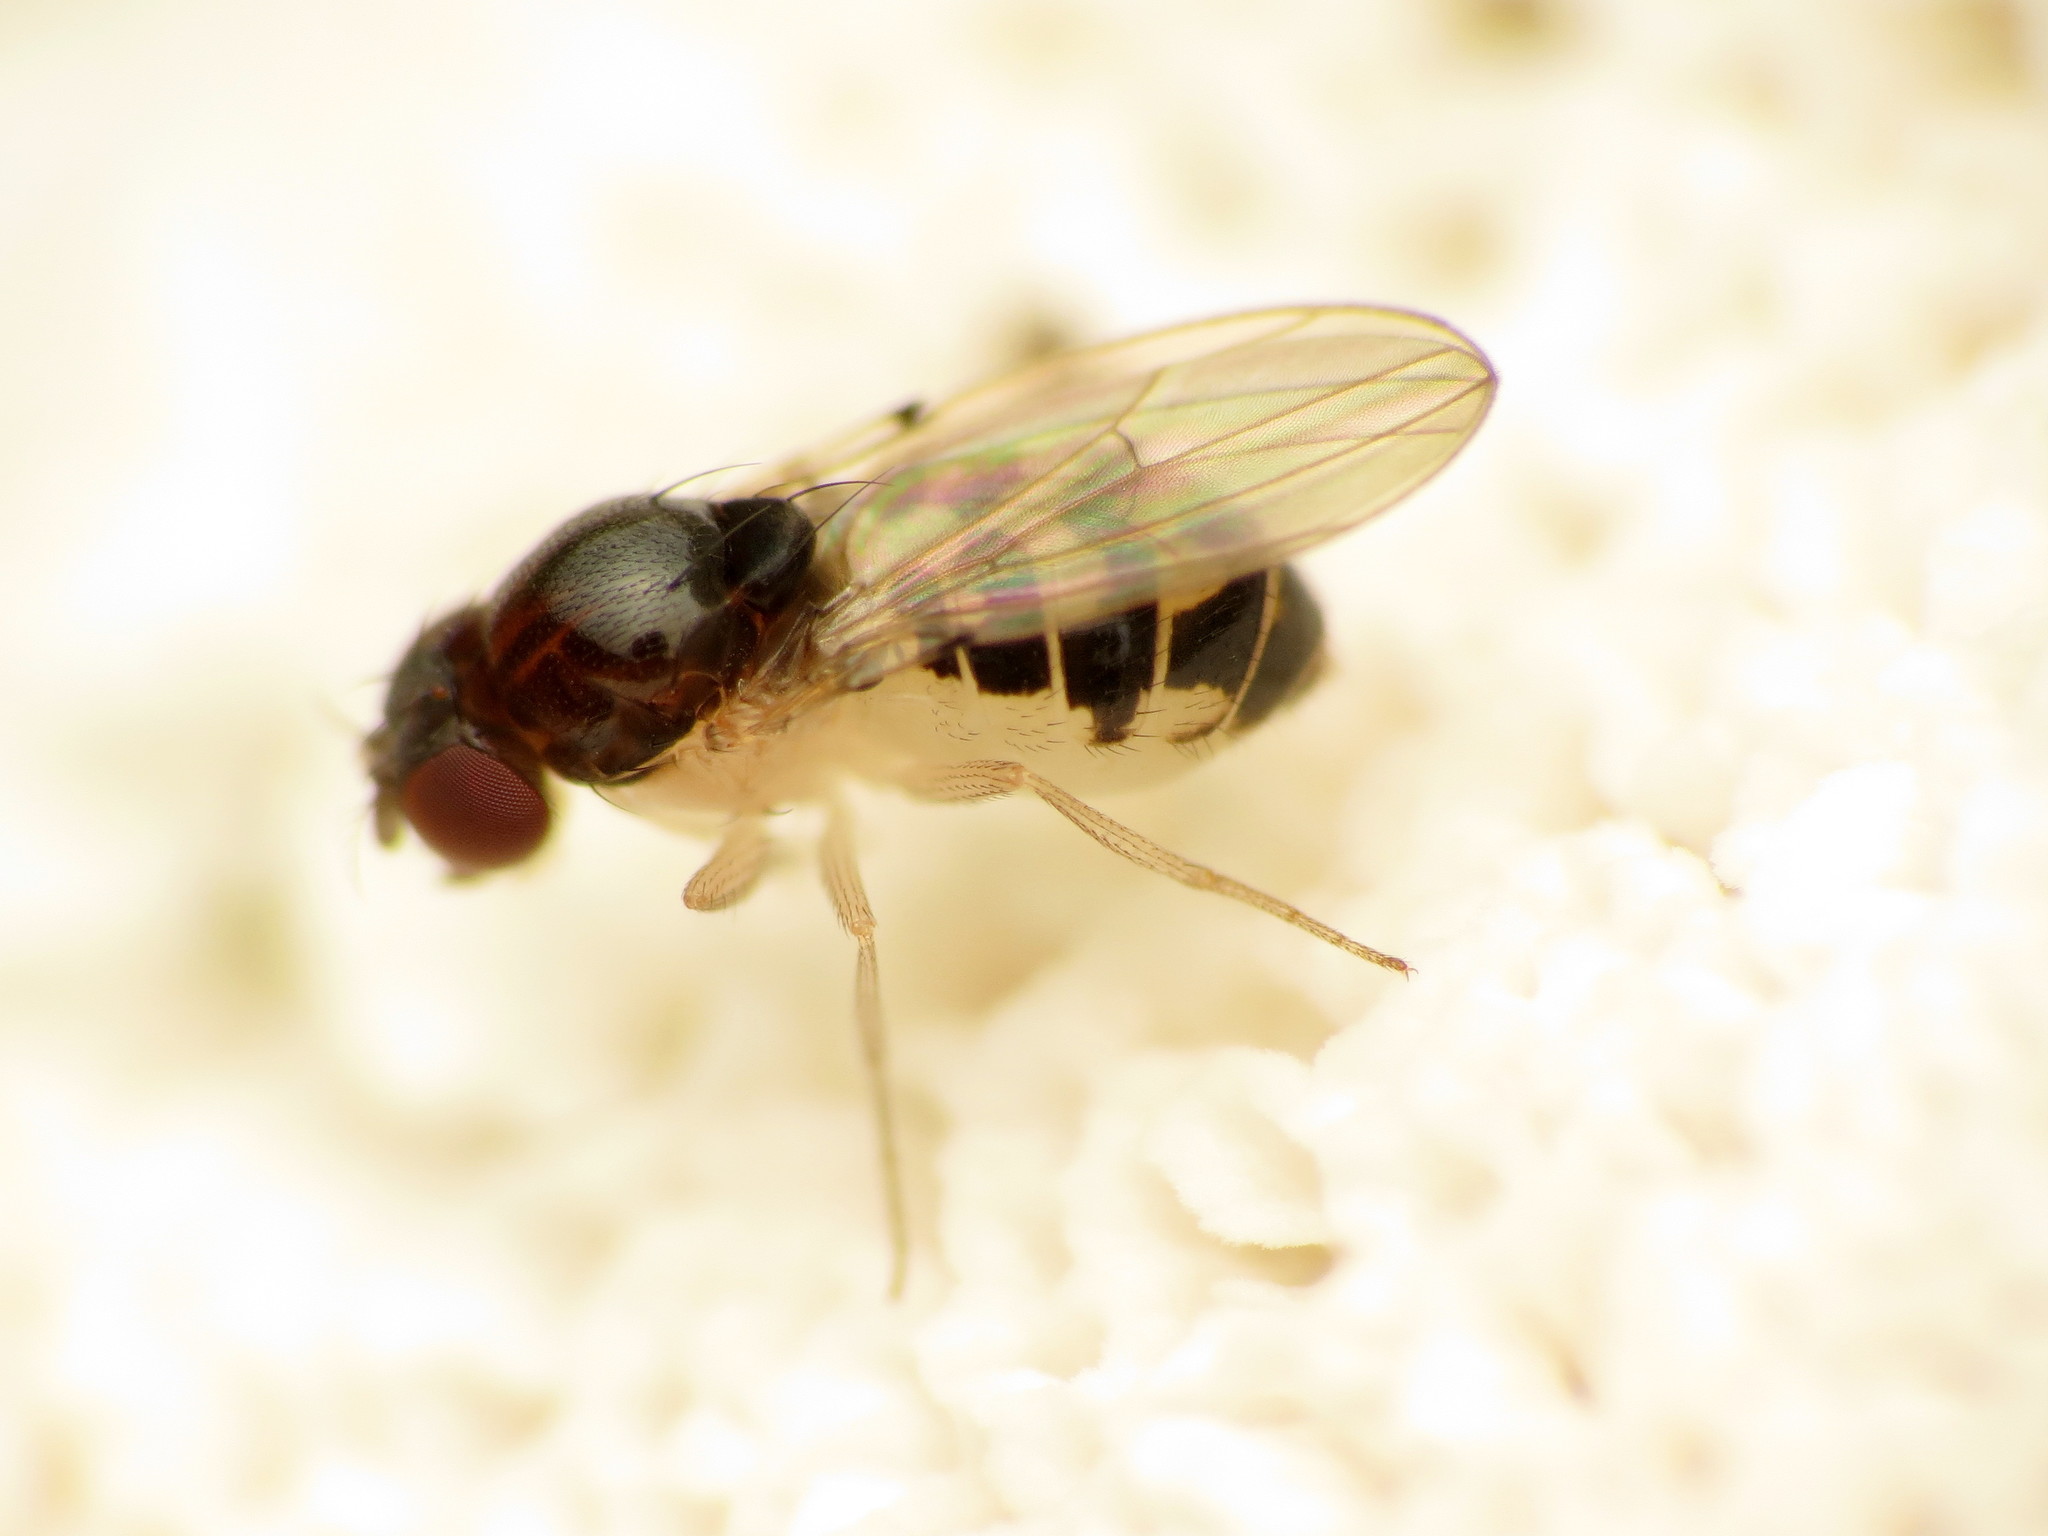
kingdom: Animalia
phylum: Arthropoda
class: Insecta
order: Diptera
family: Drosophilidae
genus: Mycodrosophila
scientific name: Mycodrosophila stalkeri
